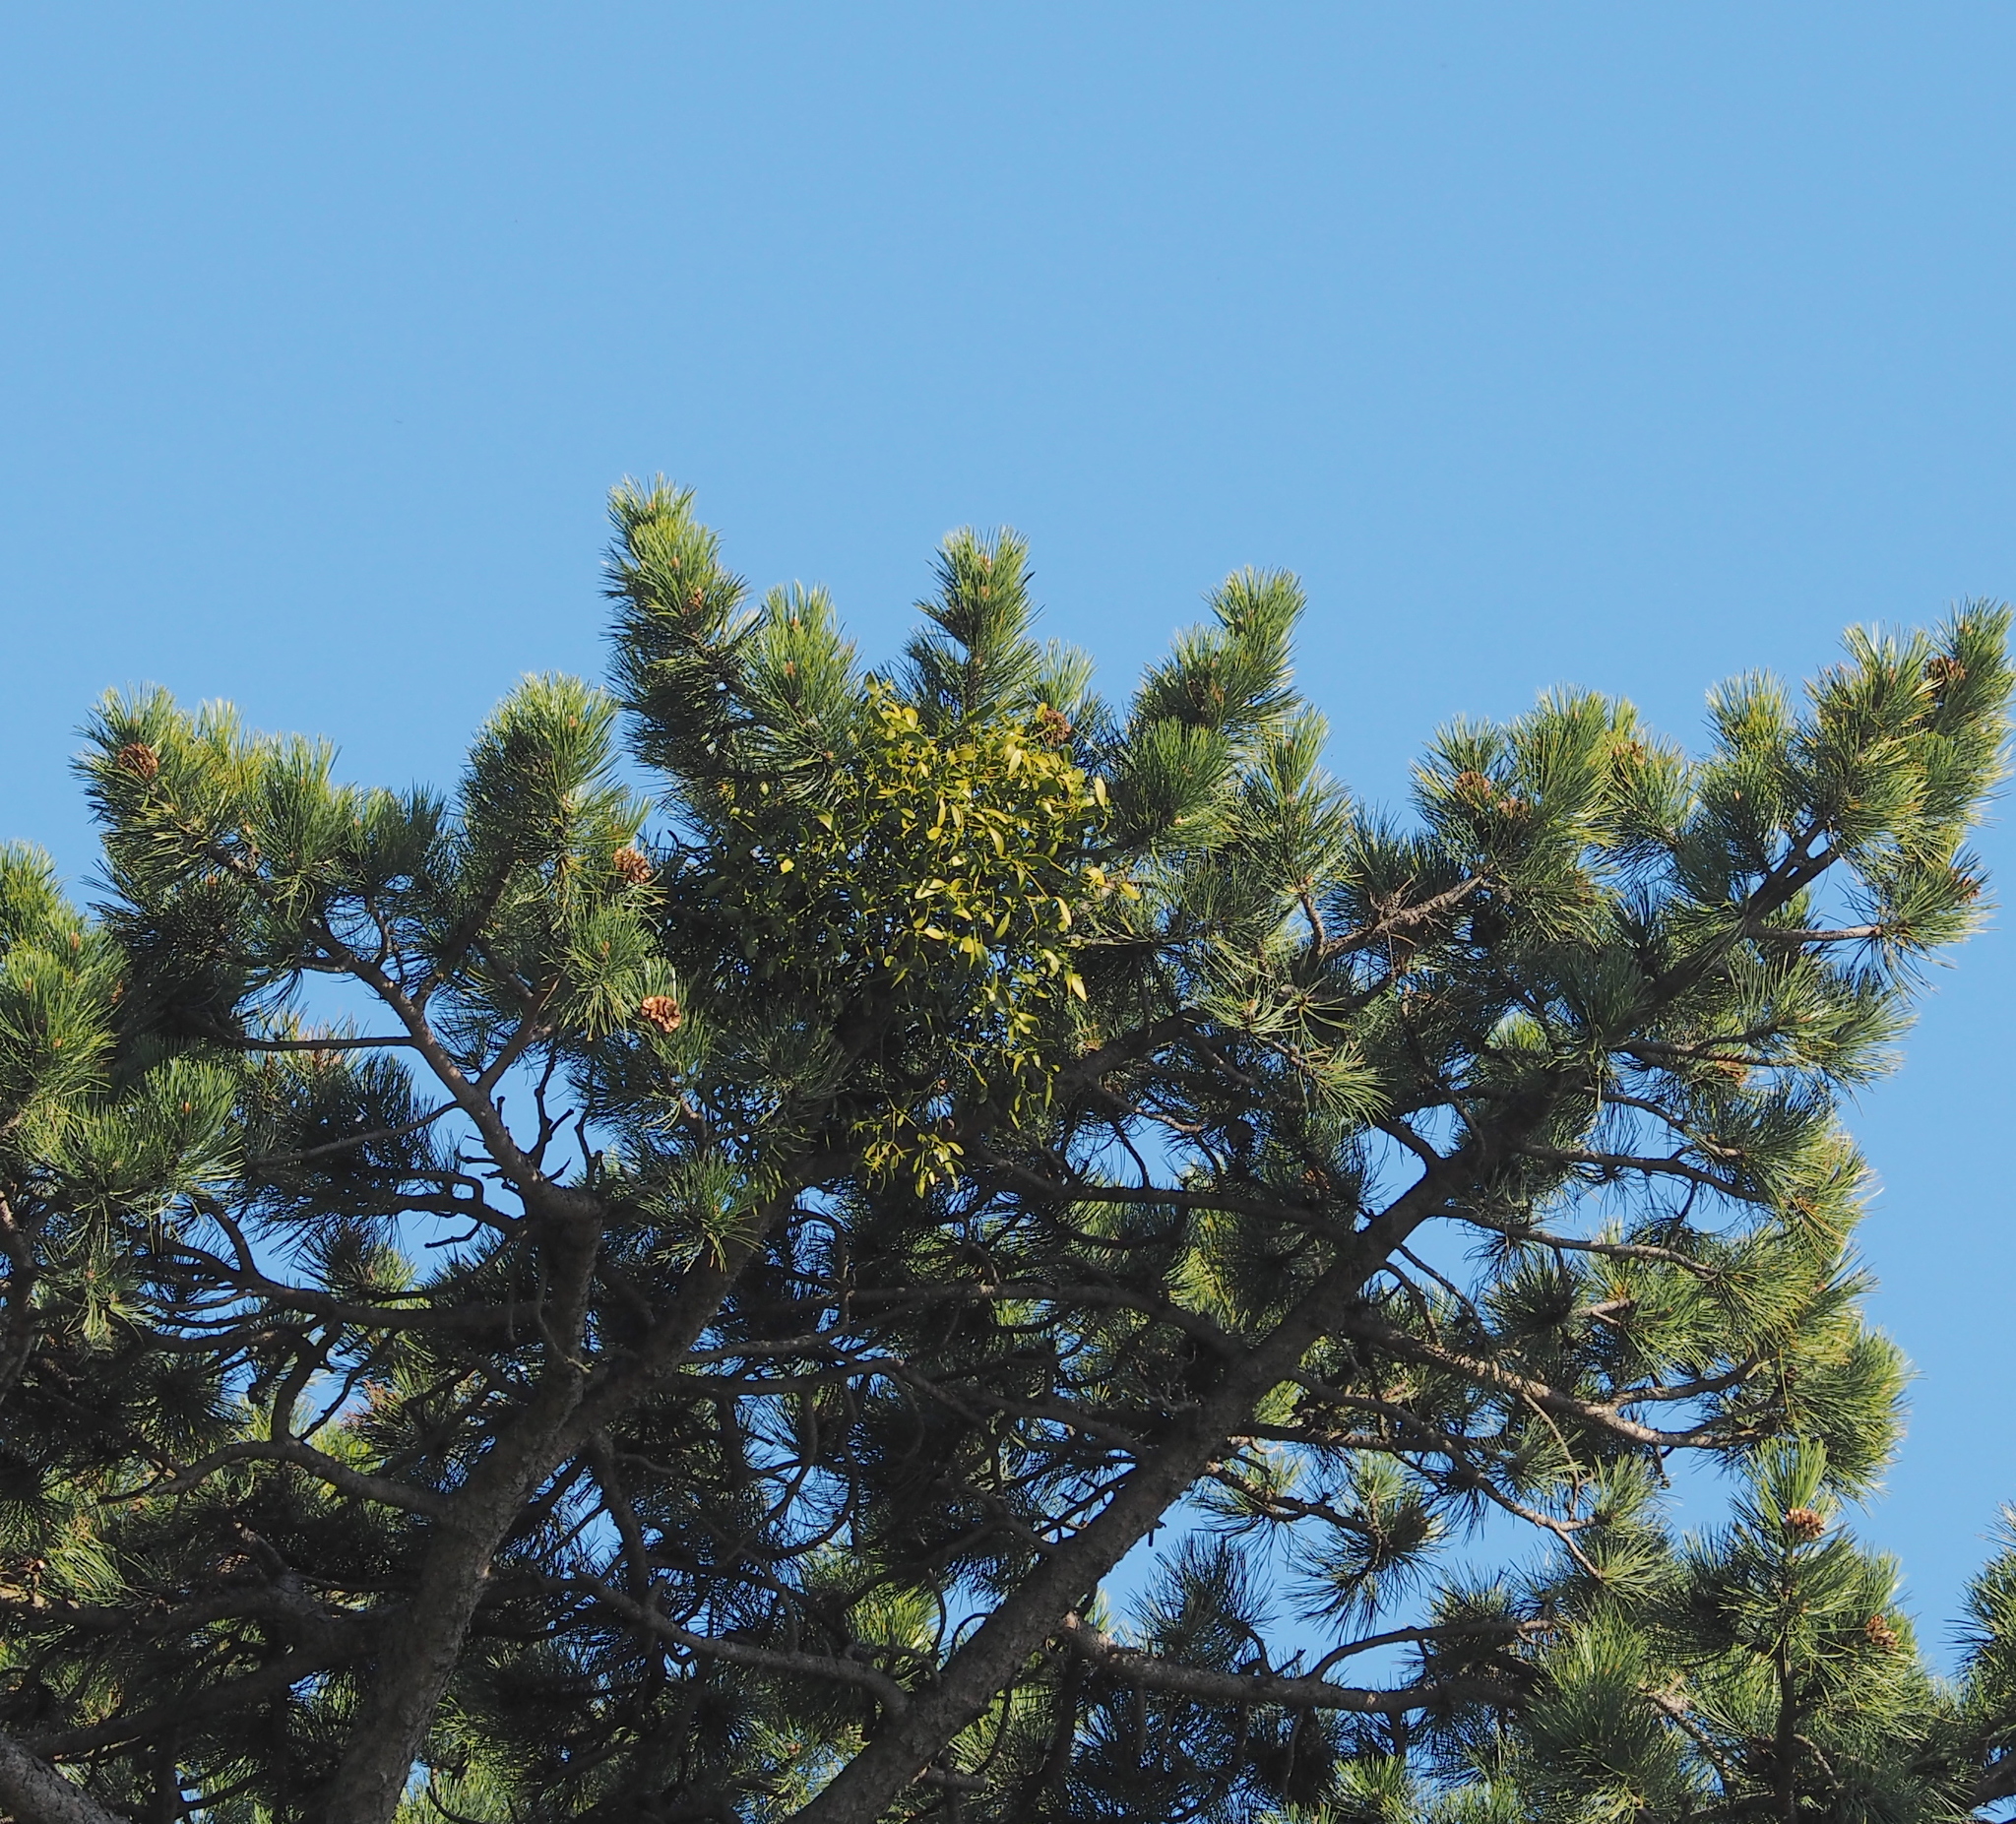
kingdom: Plantae
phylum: Tracheophyta
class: Magnoliopsida
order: Santalales
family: Viscaceae
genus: Viscum
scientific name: Viscum laxum
